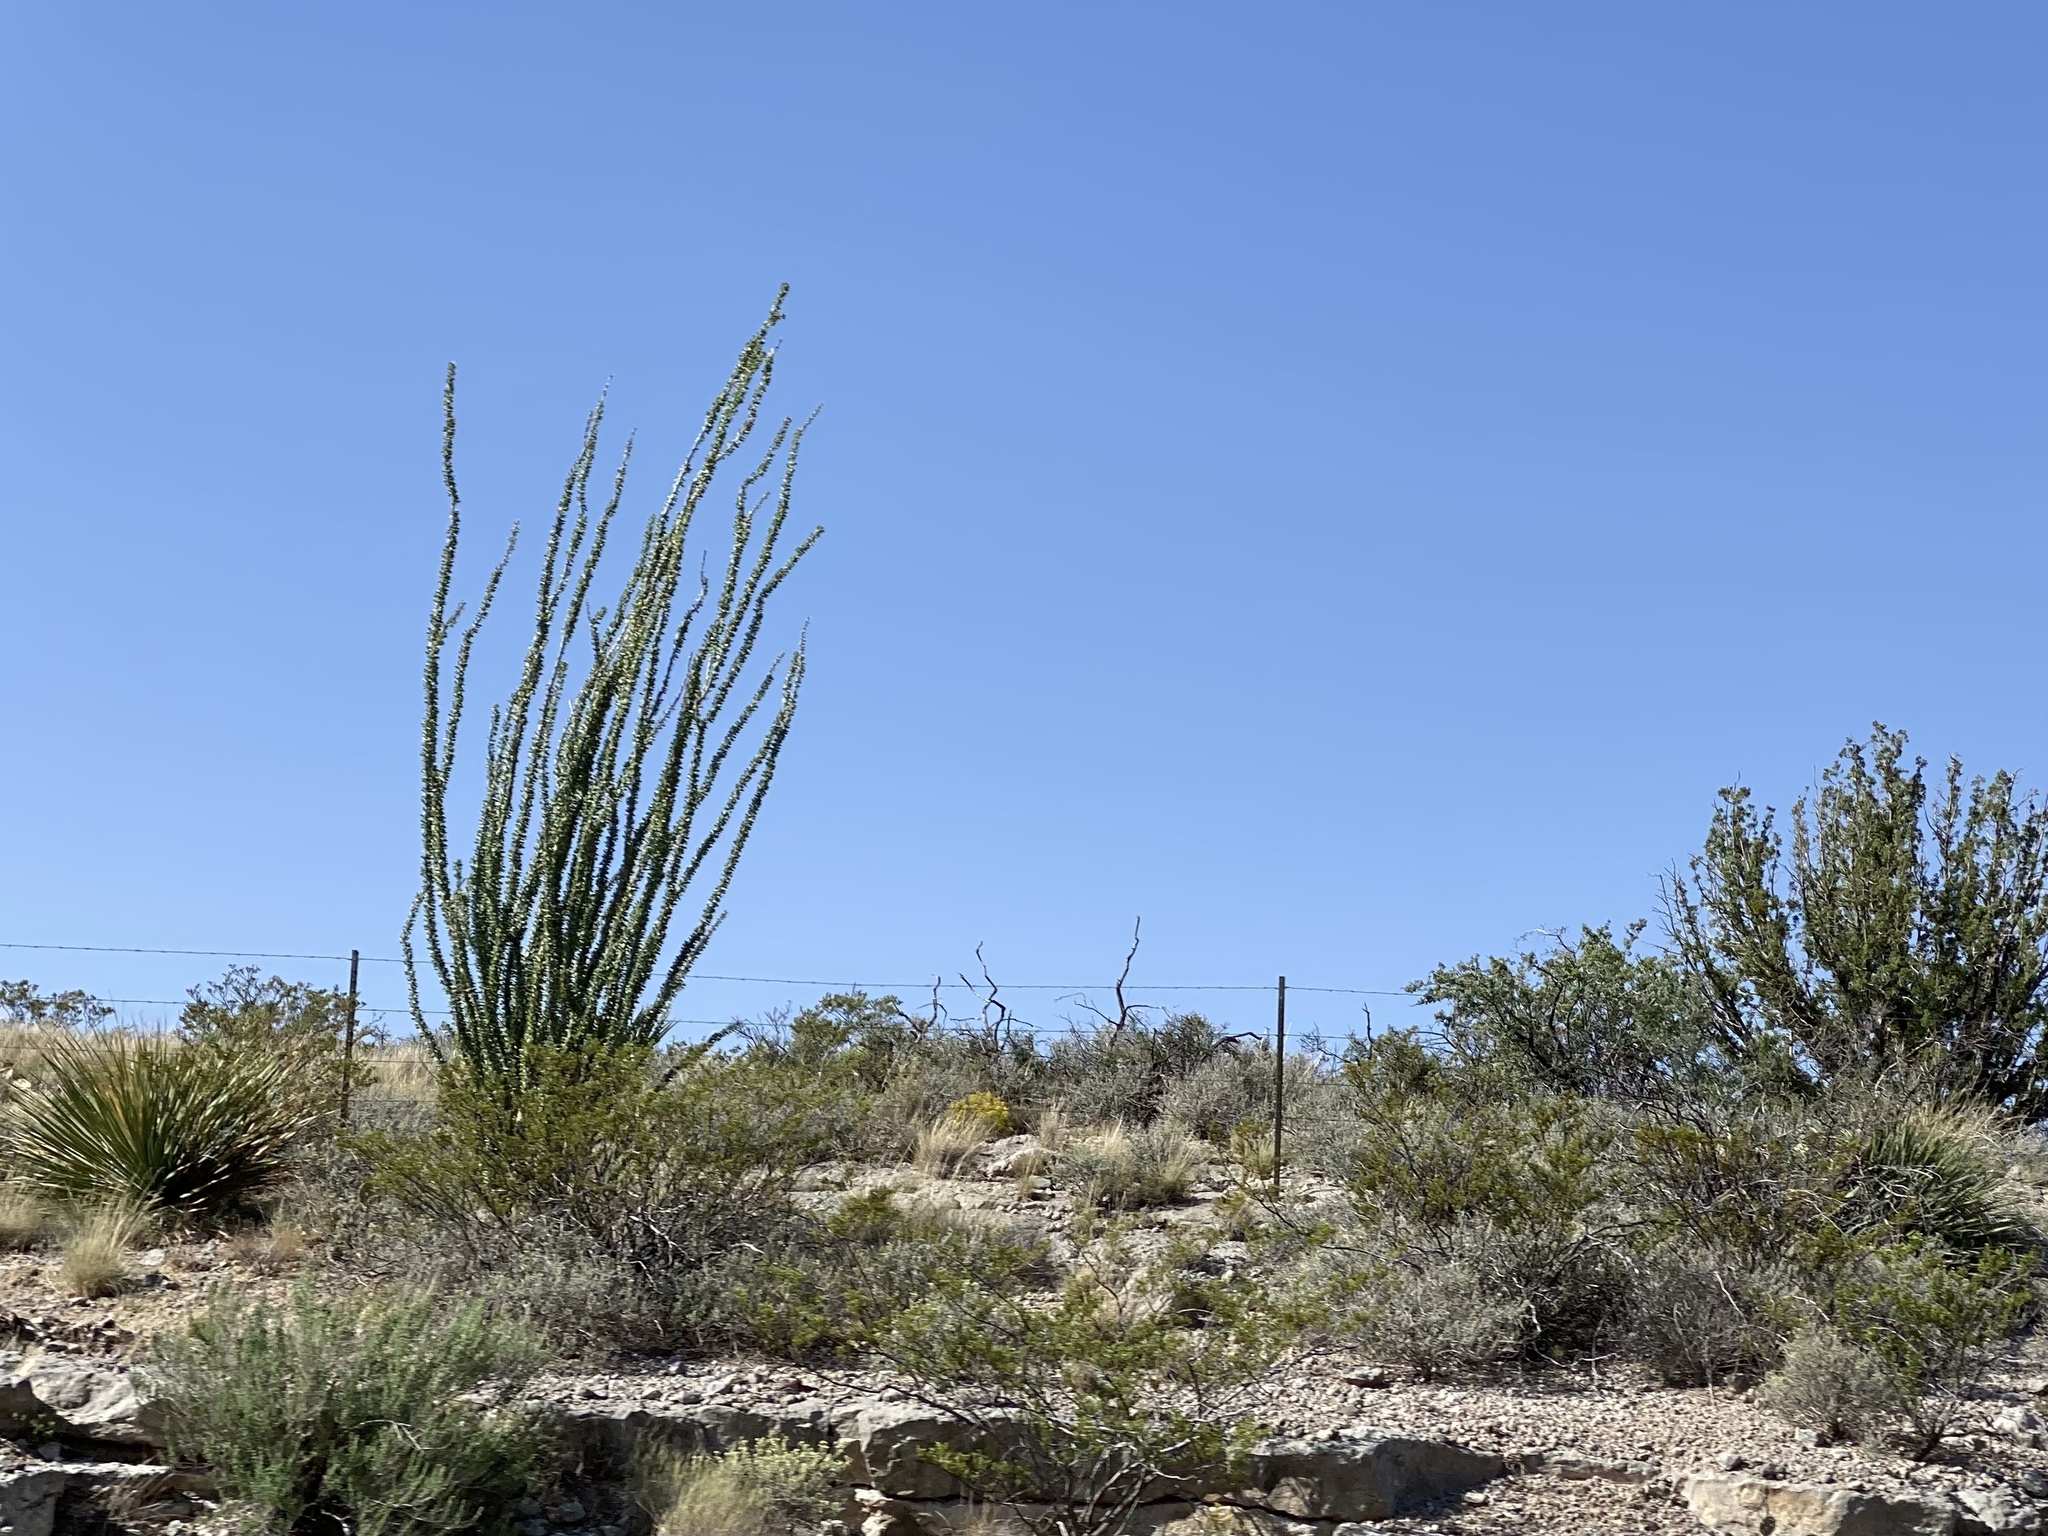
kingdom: Plantae
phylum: Tracheophyta
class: Magnoliopsida
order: Ericales
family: Fouquieriaceae
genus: Fouquieria
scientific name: Fouquieria splendens
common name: Vine-cactus
